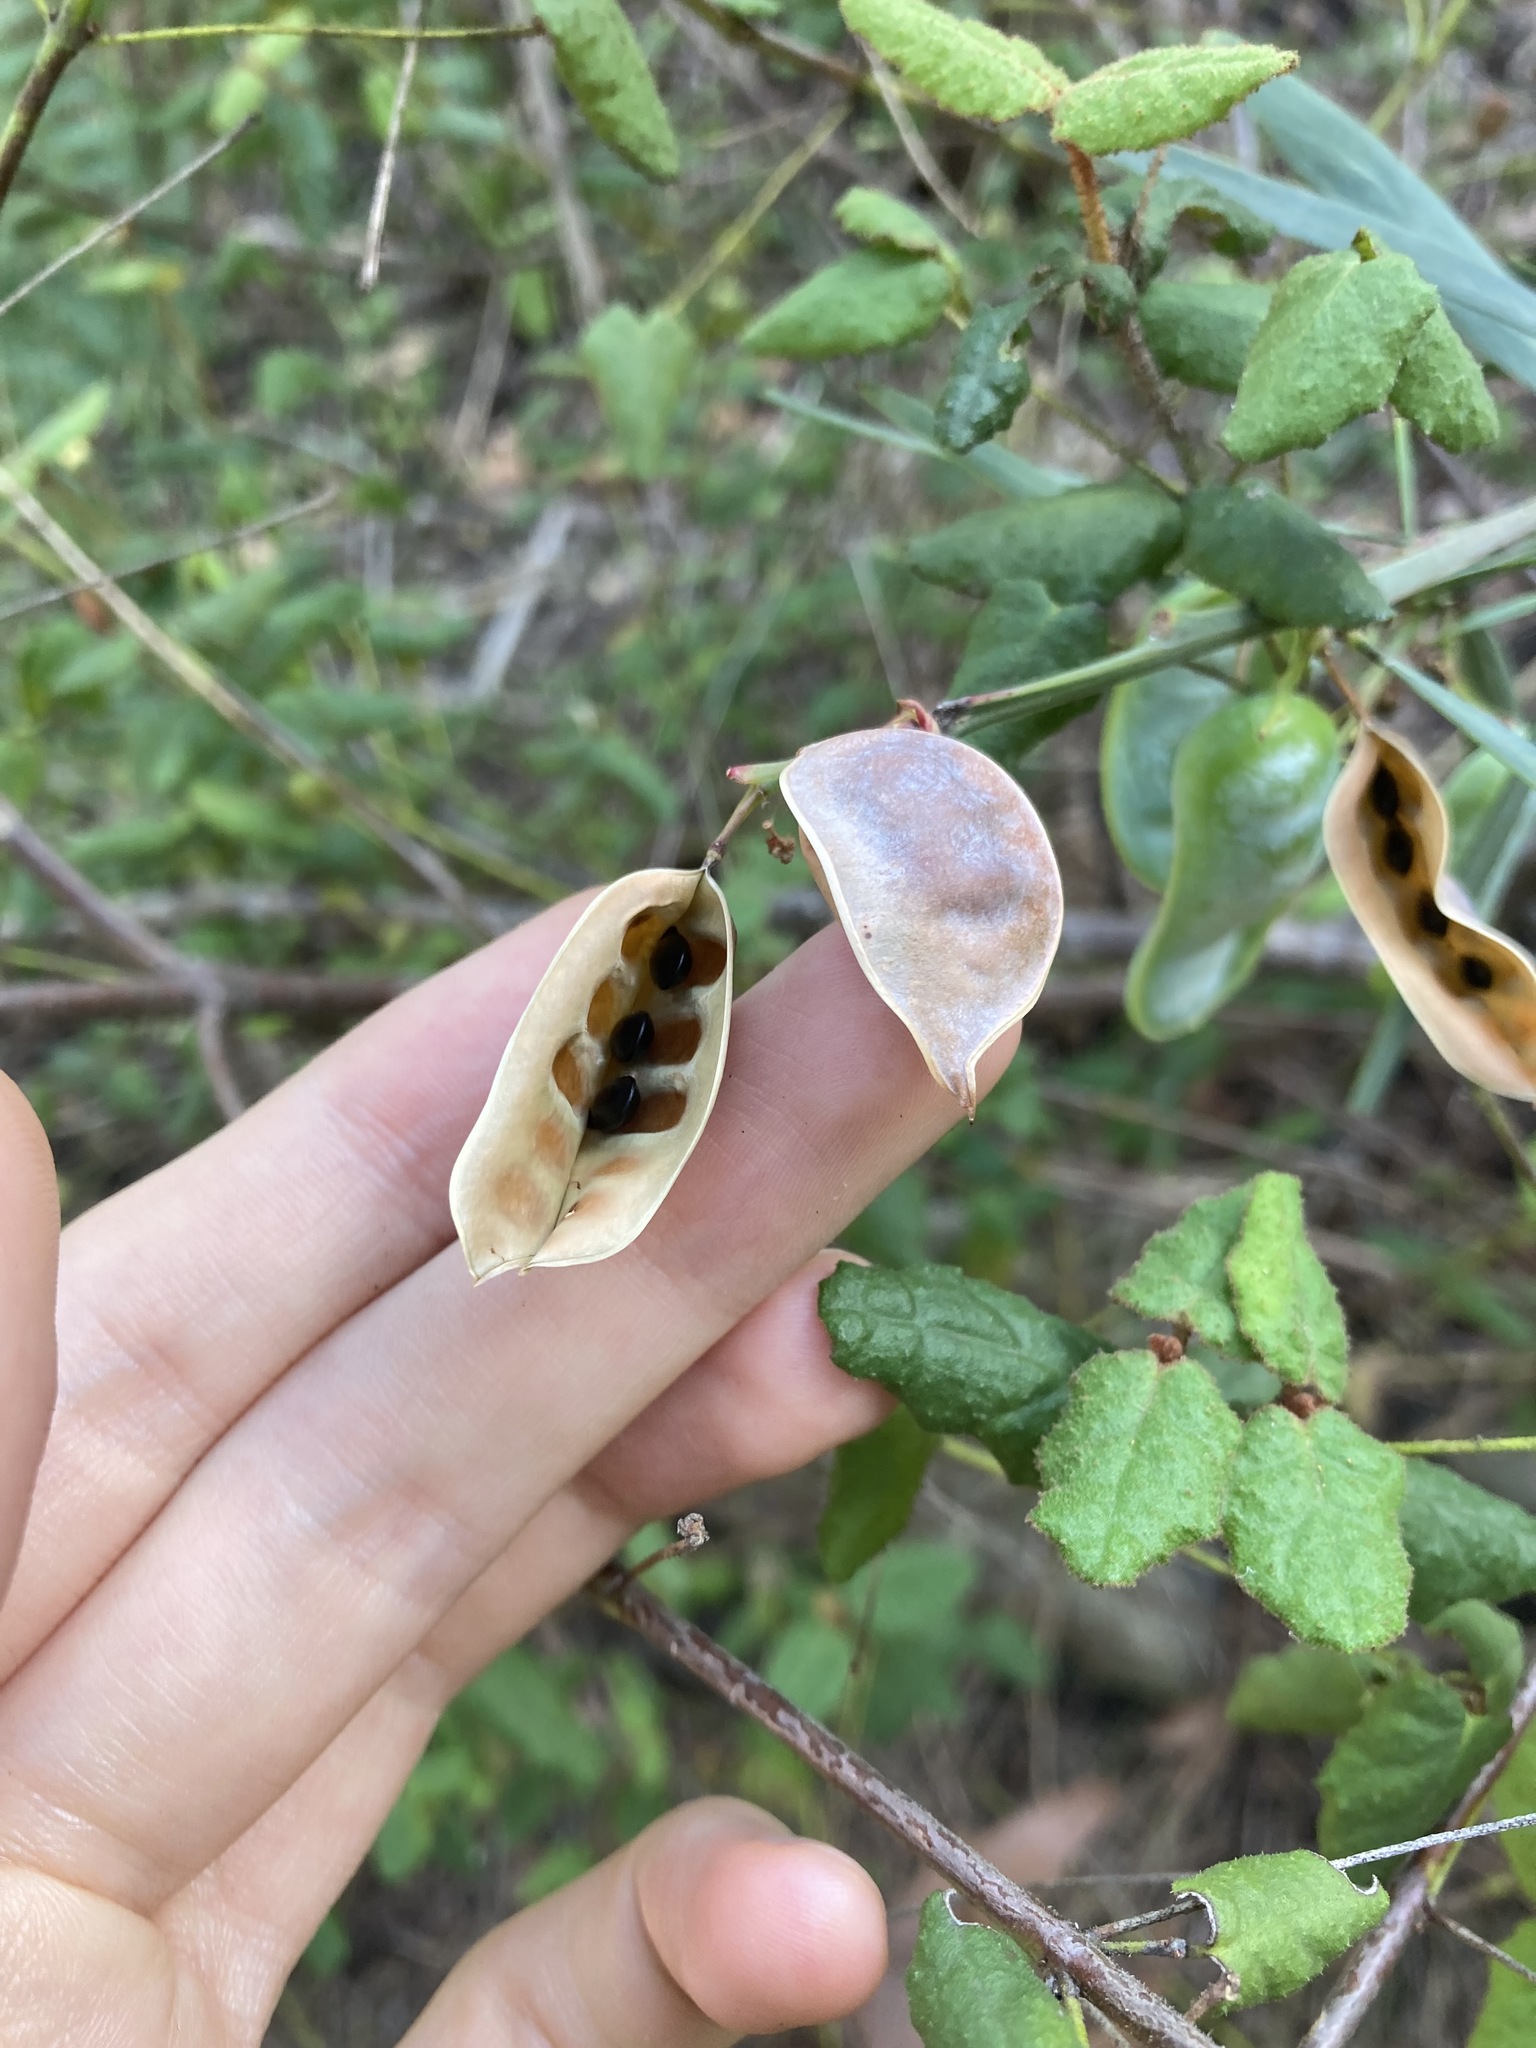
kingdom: Plantae
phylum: Tracheophyta
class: Magnoliopsida
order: Fabales
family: Fabaceae
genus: Acacia
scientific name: Acacia suaveolens
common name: Sweet acacia
